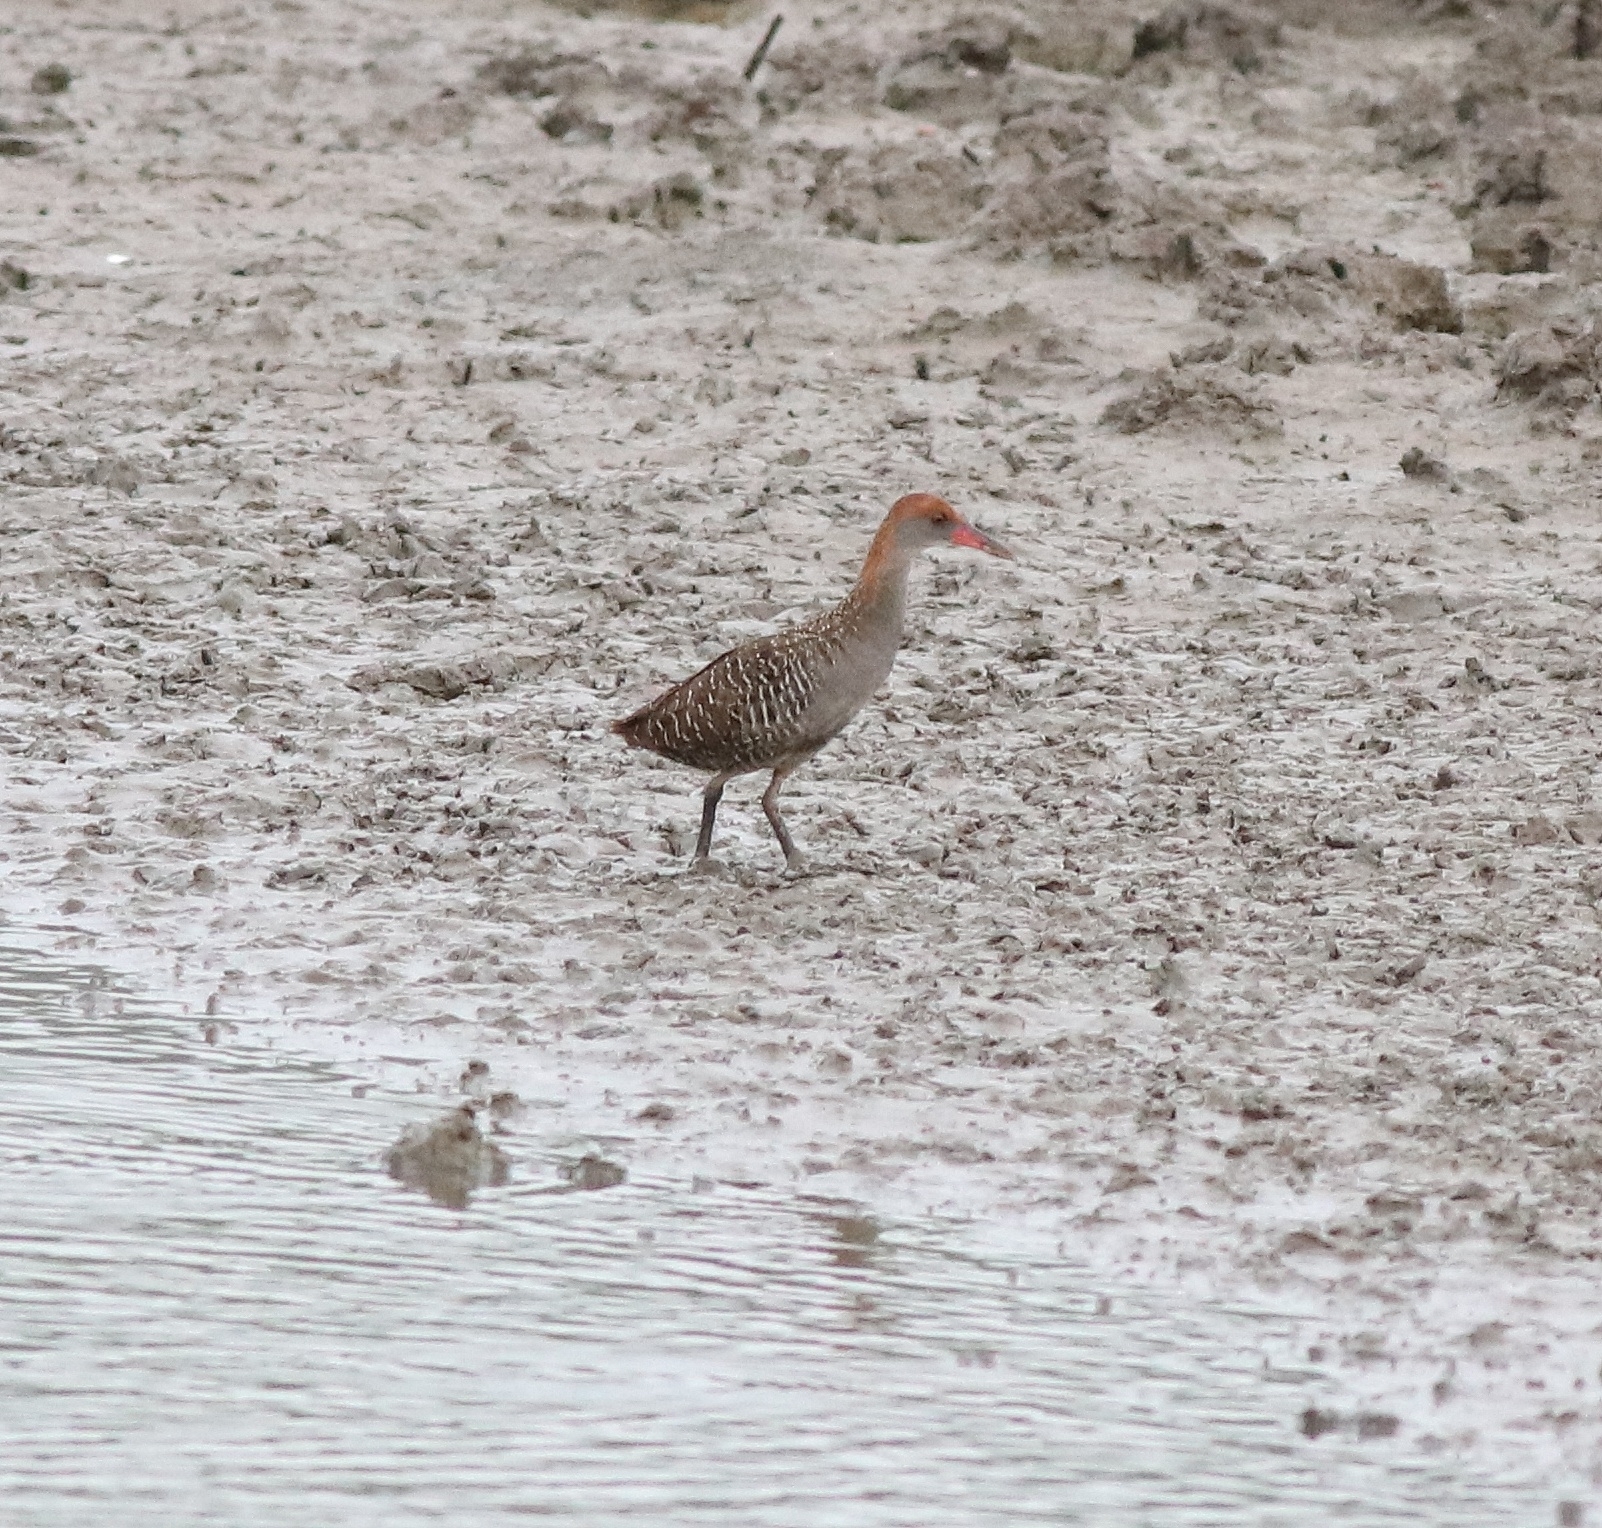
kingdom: Animalia
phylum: Chordata
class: Aves
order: Gruiformes
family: Rallidae
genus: Gallirallus
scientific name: Gallirallus striatus
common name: Slaty-breasted rail
